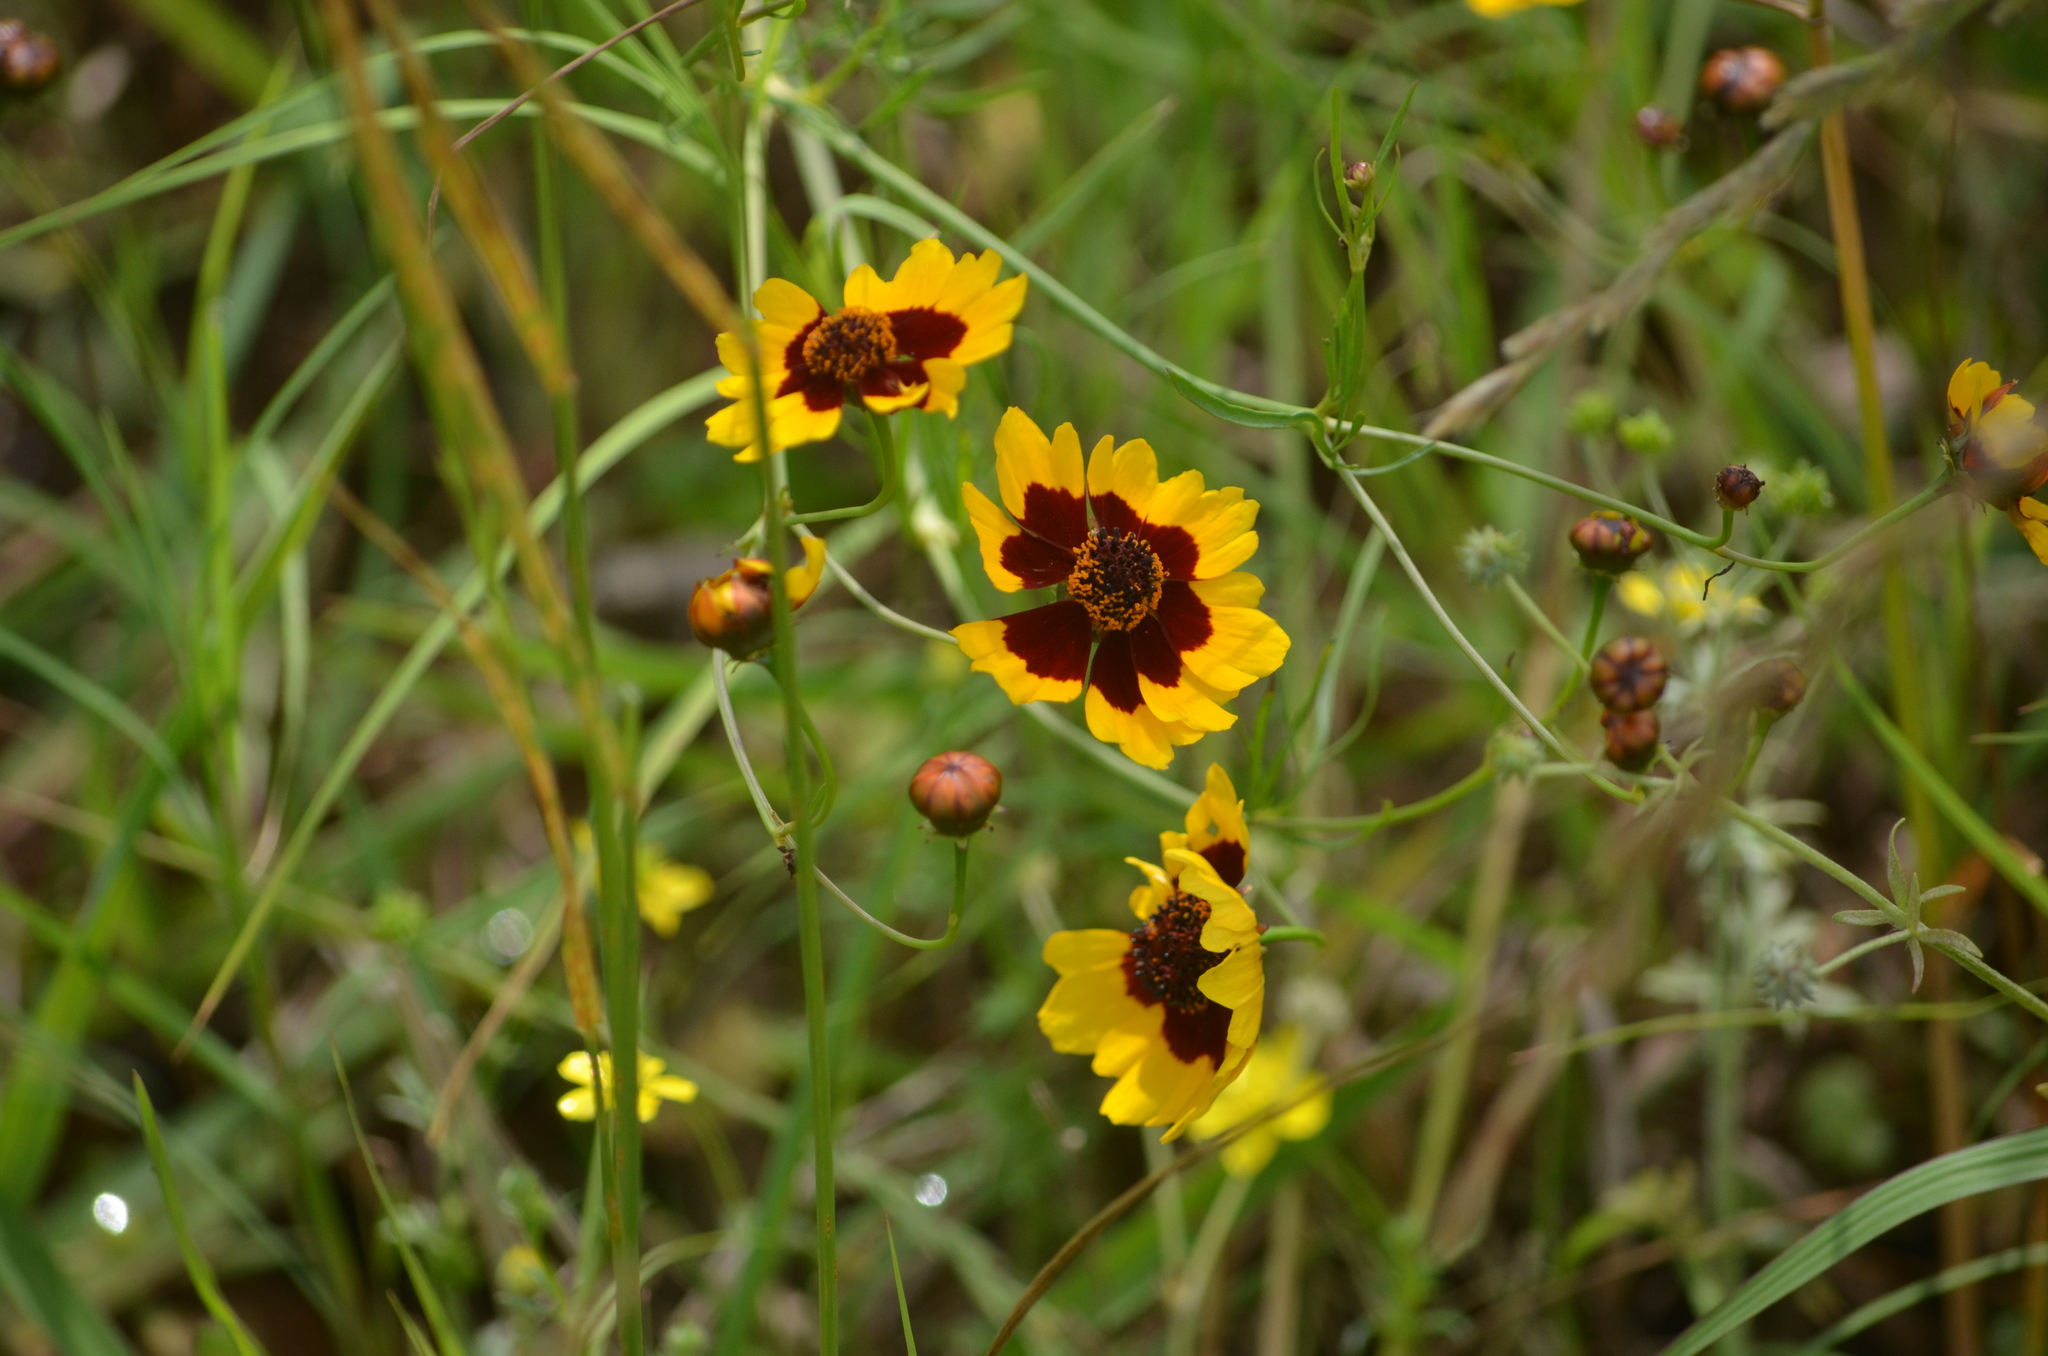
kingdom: Plantae
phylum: Tracheophyta
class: Magnoliopsida
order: Asterales
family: Asteraceae
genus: Coreopsis
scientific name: Coreopsis tinctoria
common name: Garden tickseed
